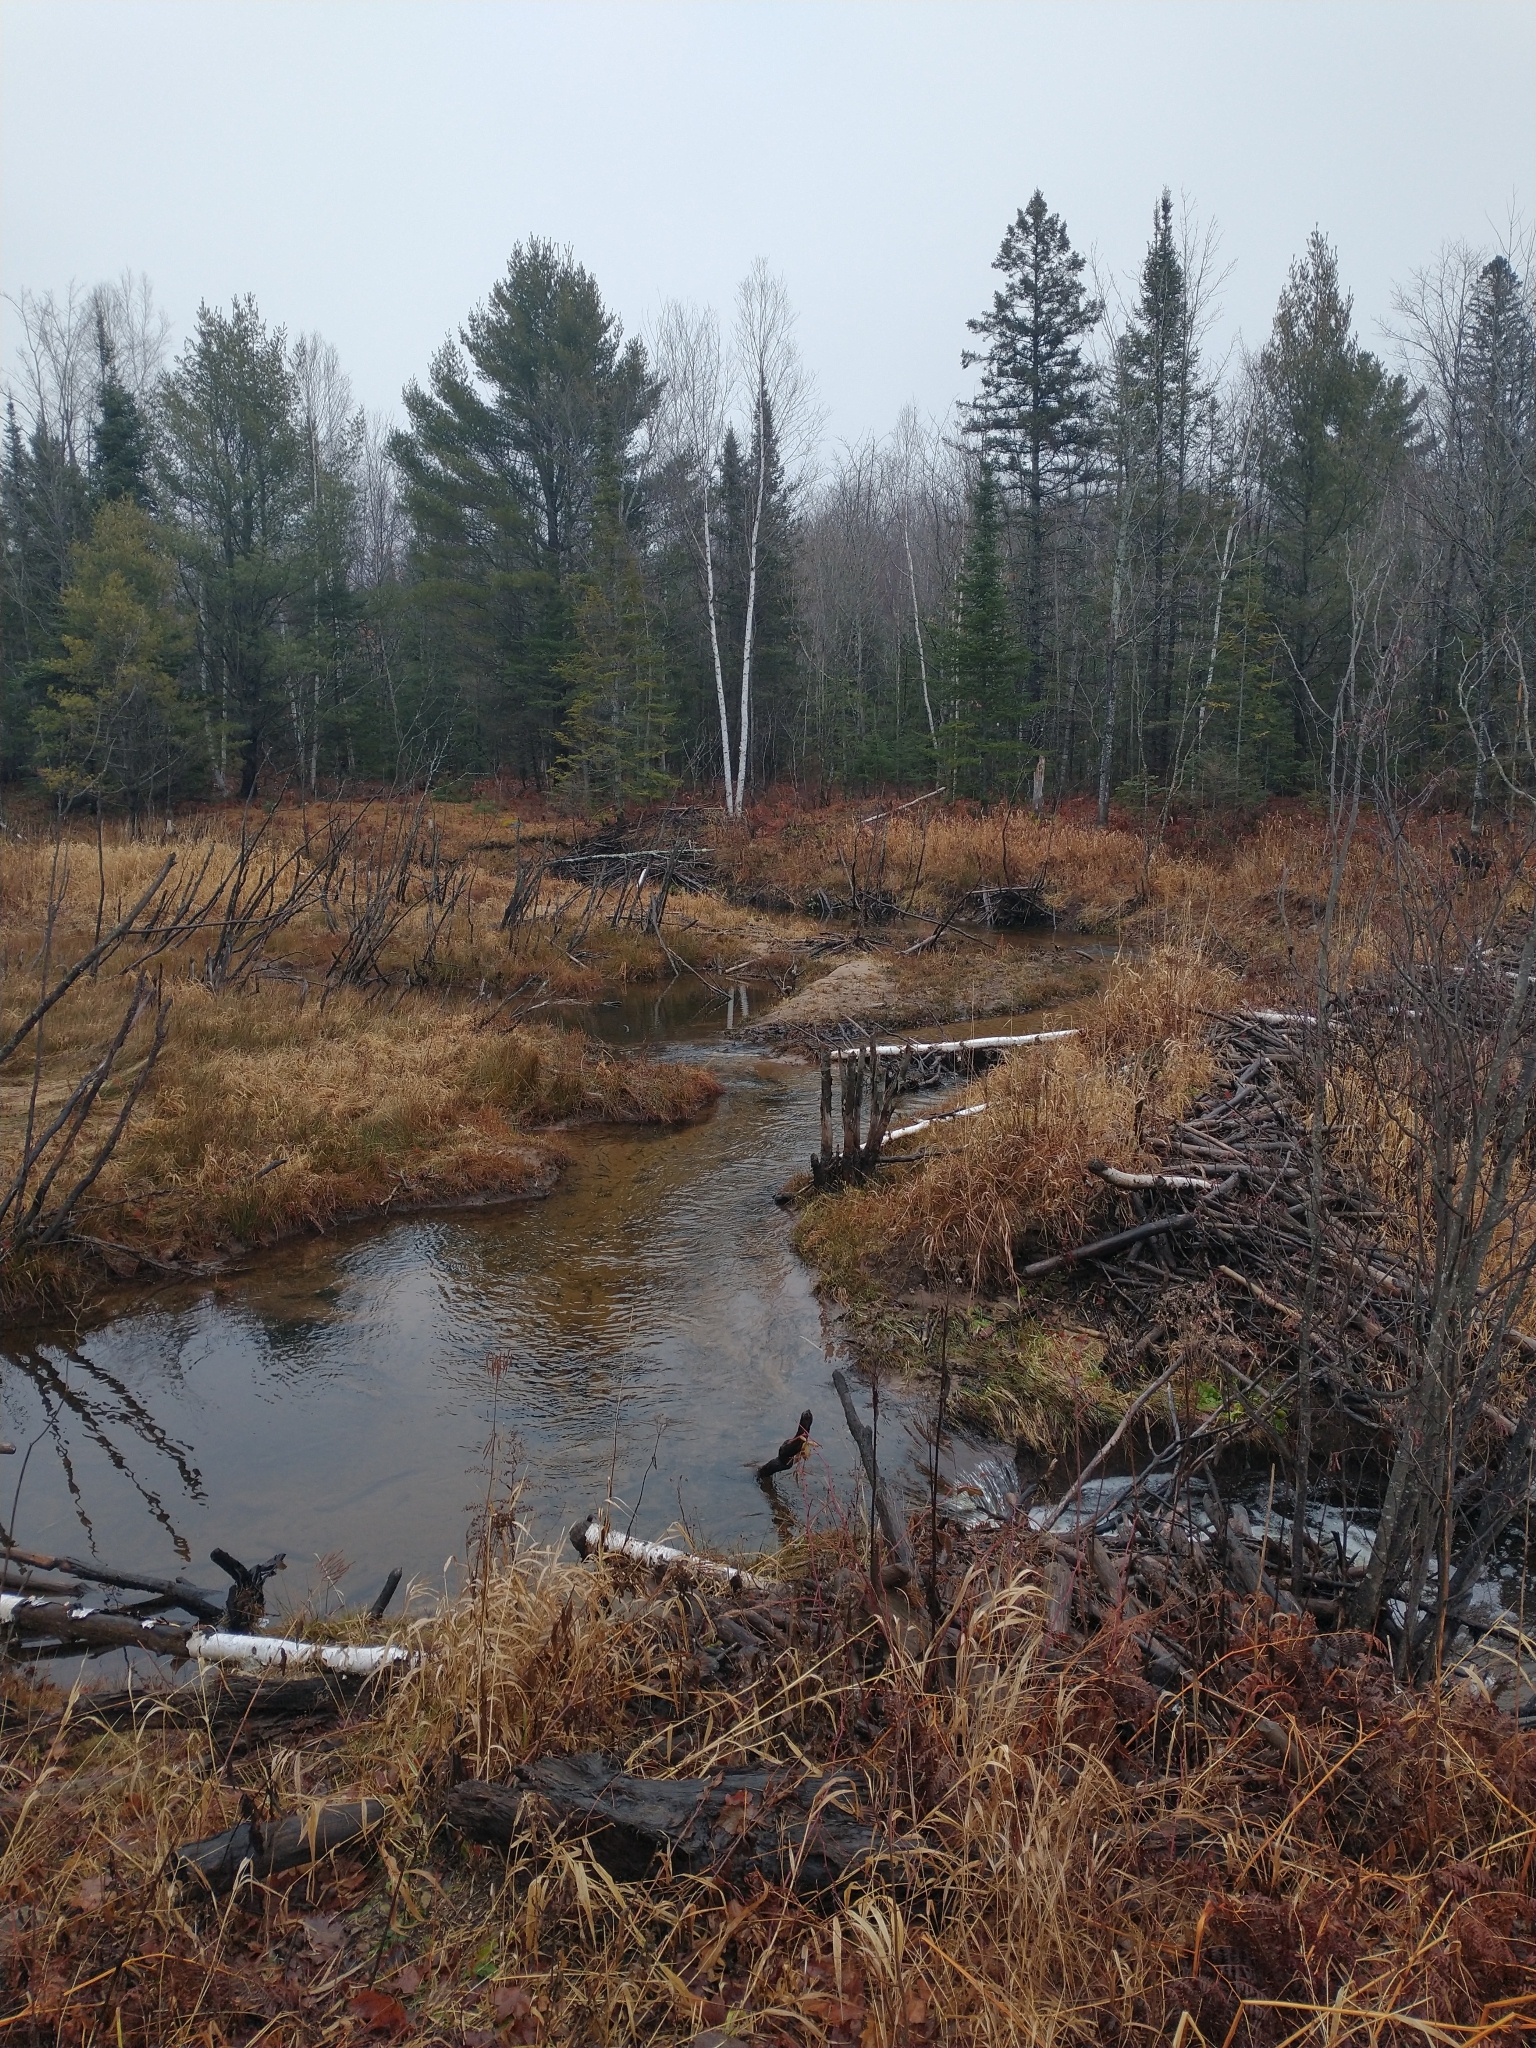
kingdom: Plantae
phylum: Tracheophyta
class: Magnoliopsida
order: Fagales
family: Betulaceae
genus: Betula
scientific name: Betula papyrifera
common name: Paper birch
